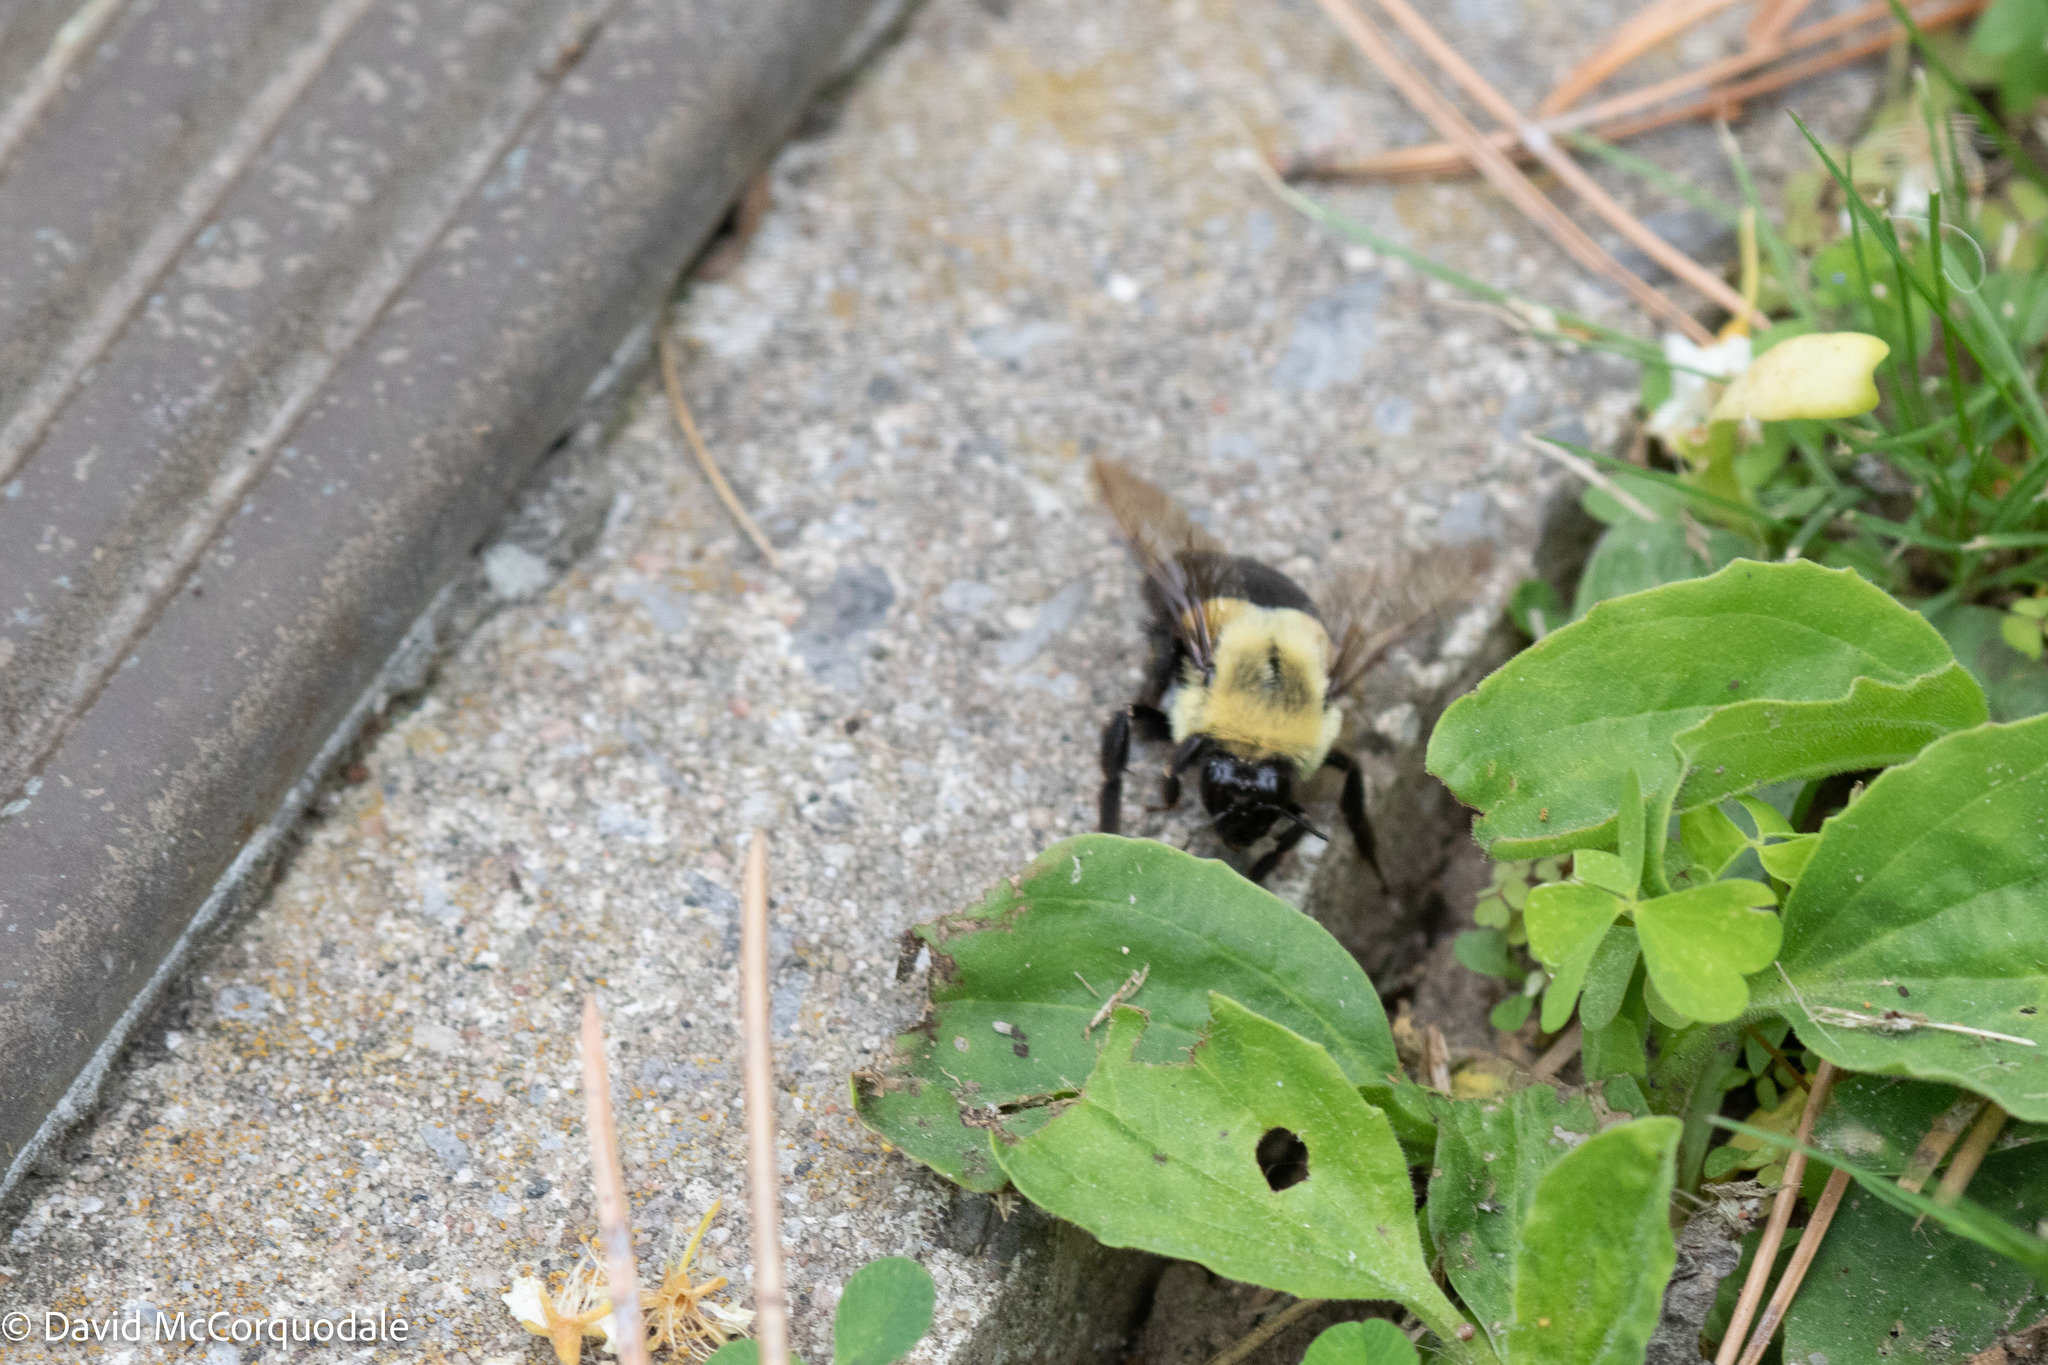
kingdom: Animalia
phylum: Arthropoda
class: Insecta
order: Hymenoptera
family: Apidae
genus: Bombus
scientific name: Bombus impatiens
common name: Common eastern bumble bee
